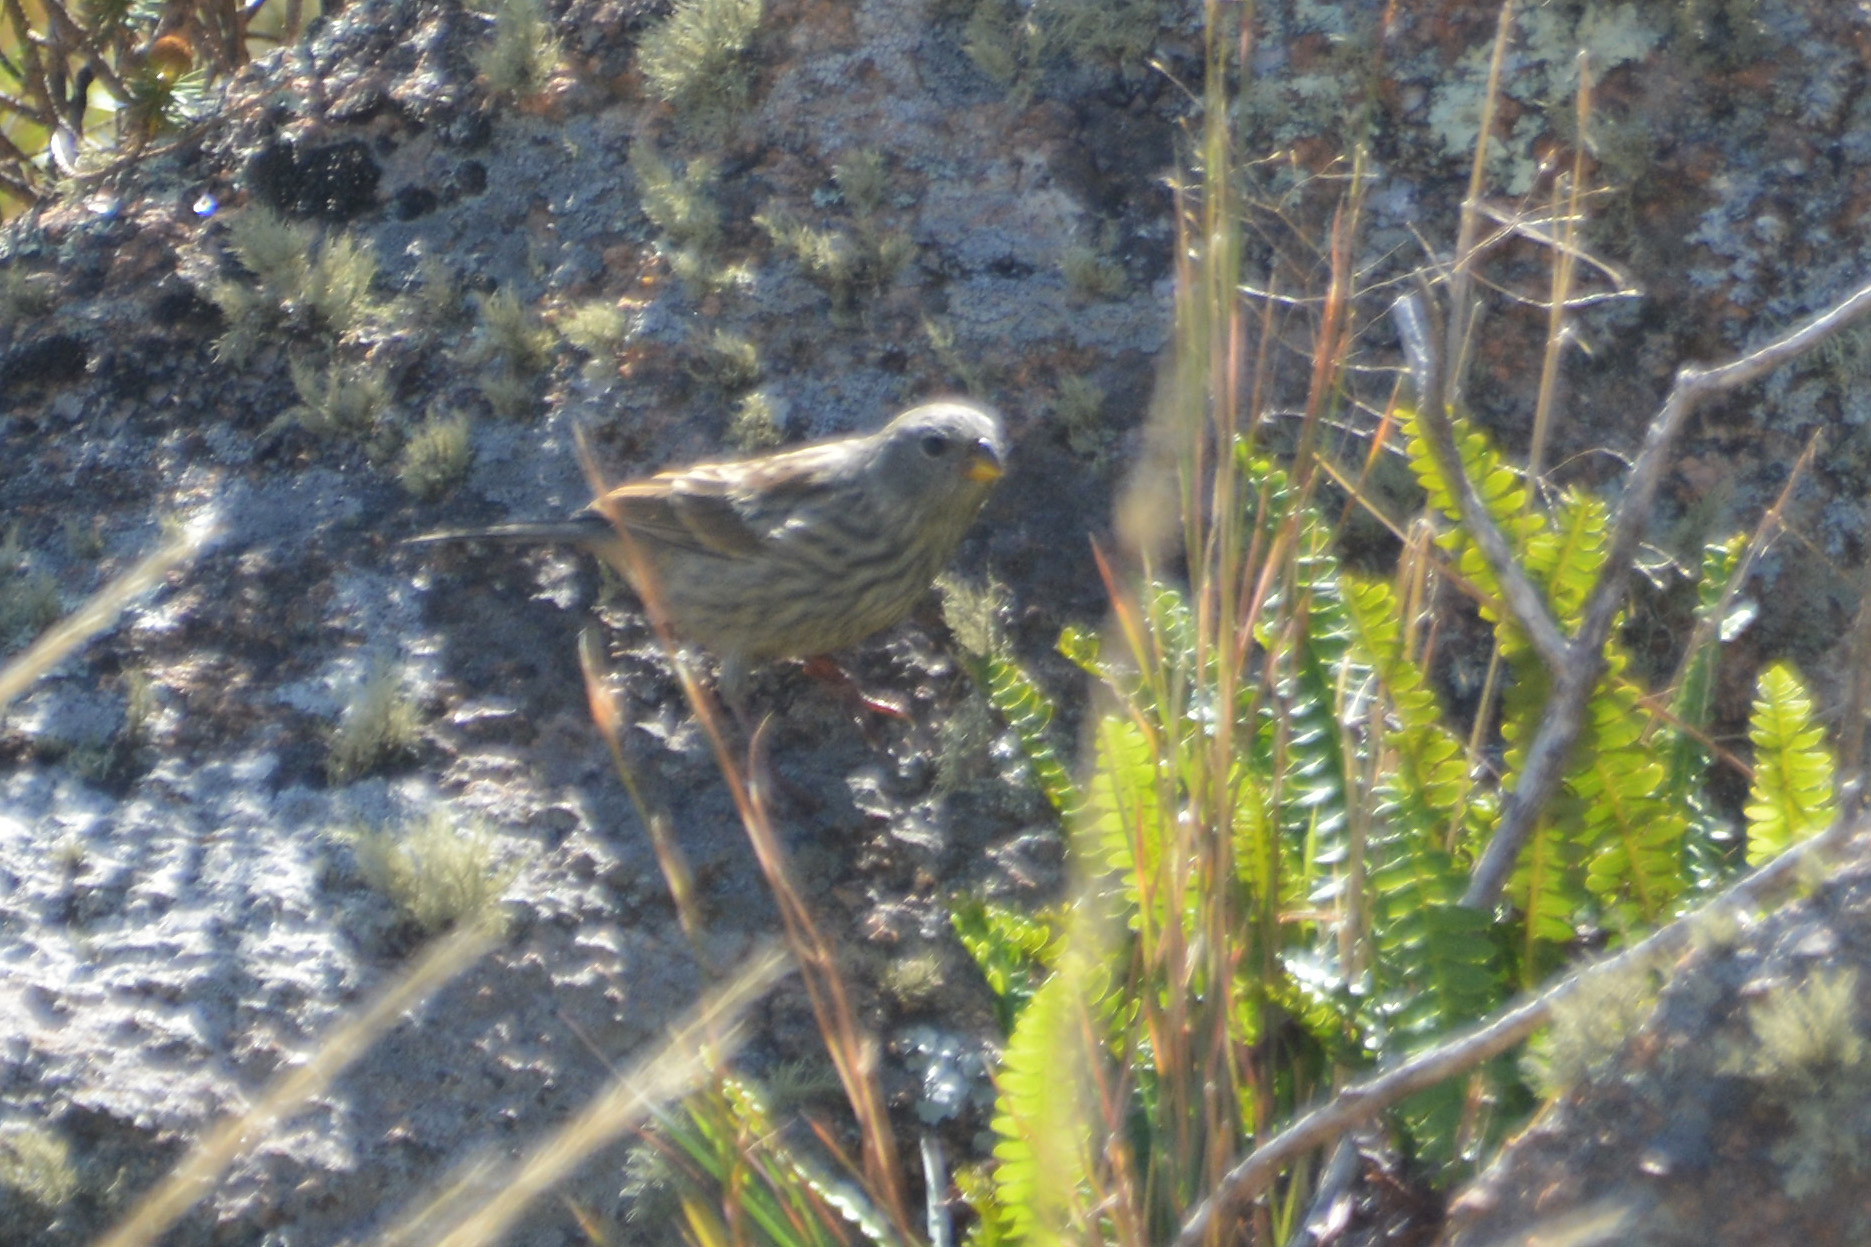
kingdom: Animalia
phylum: Chordata
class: Aves
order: Passeriformes
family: Thraupidae
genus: Catamenia
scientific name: Catamenia inornata
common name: Plain-colored seedeater
